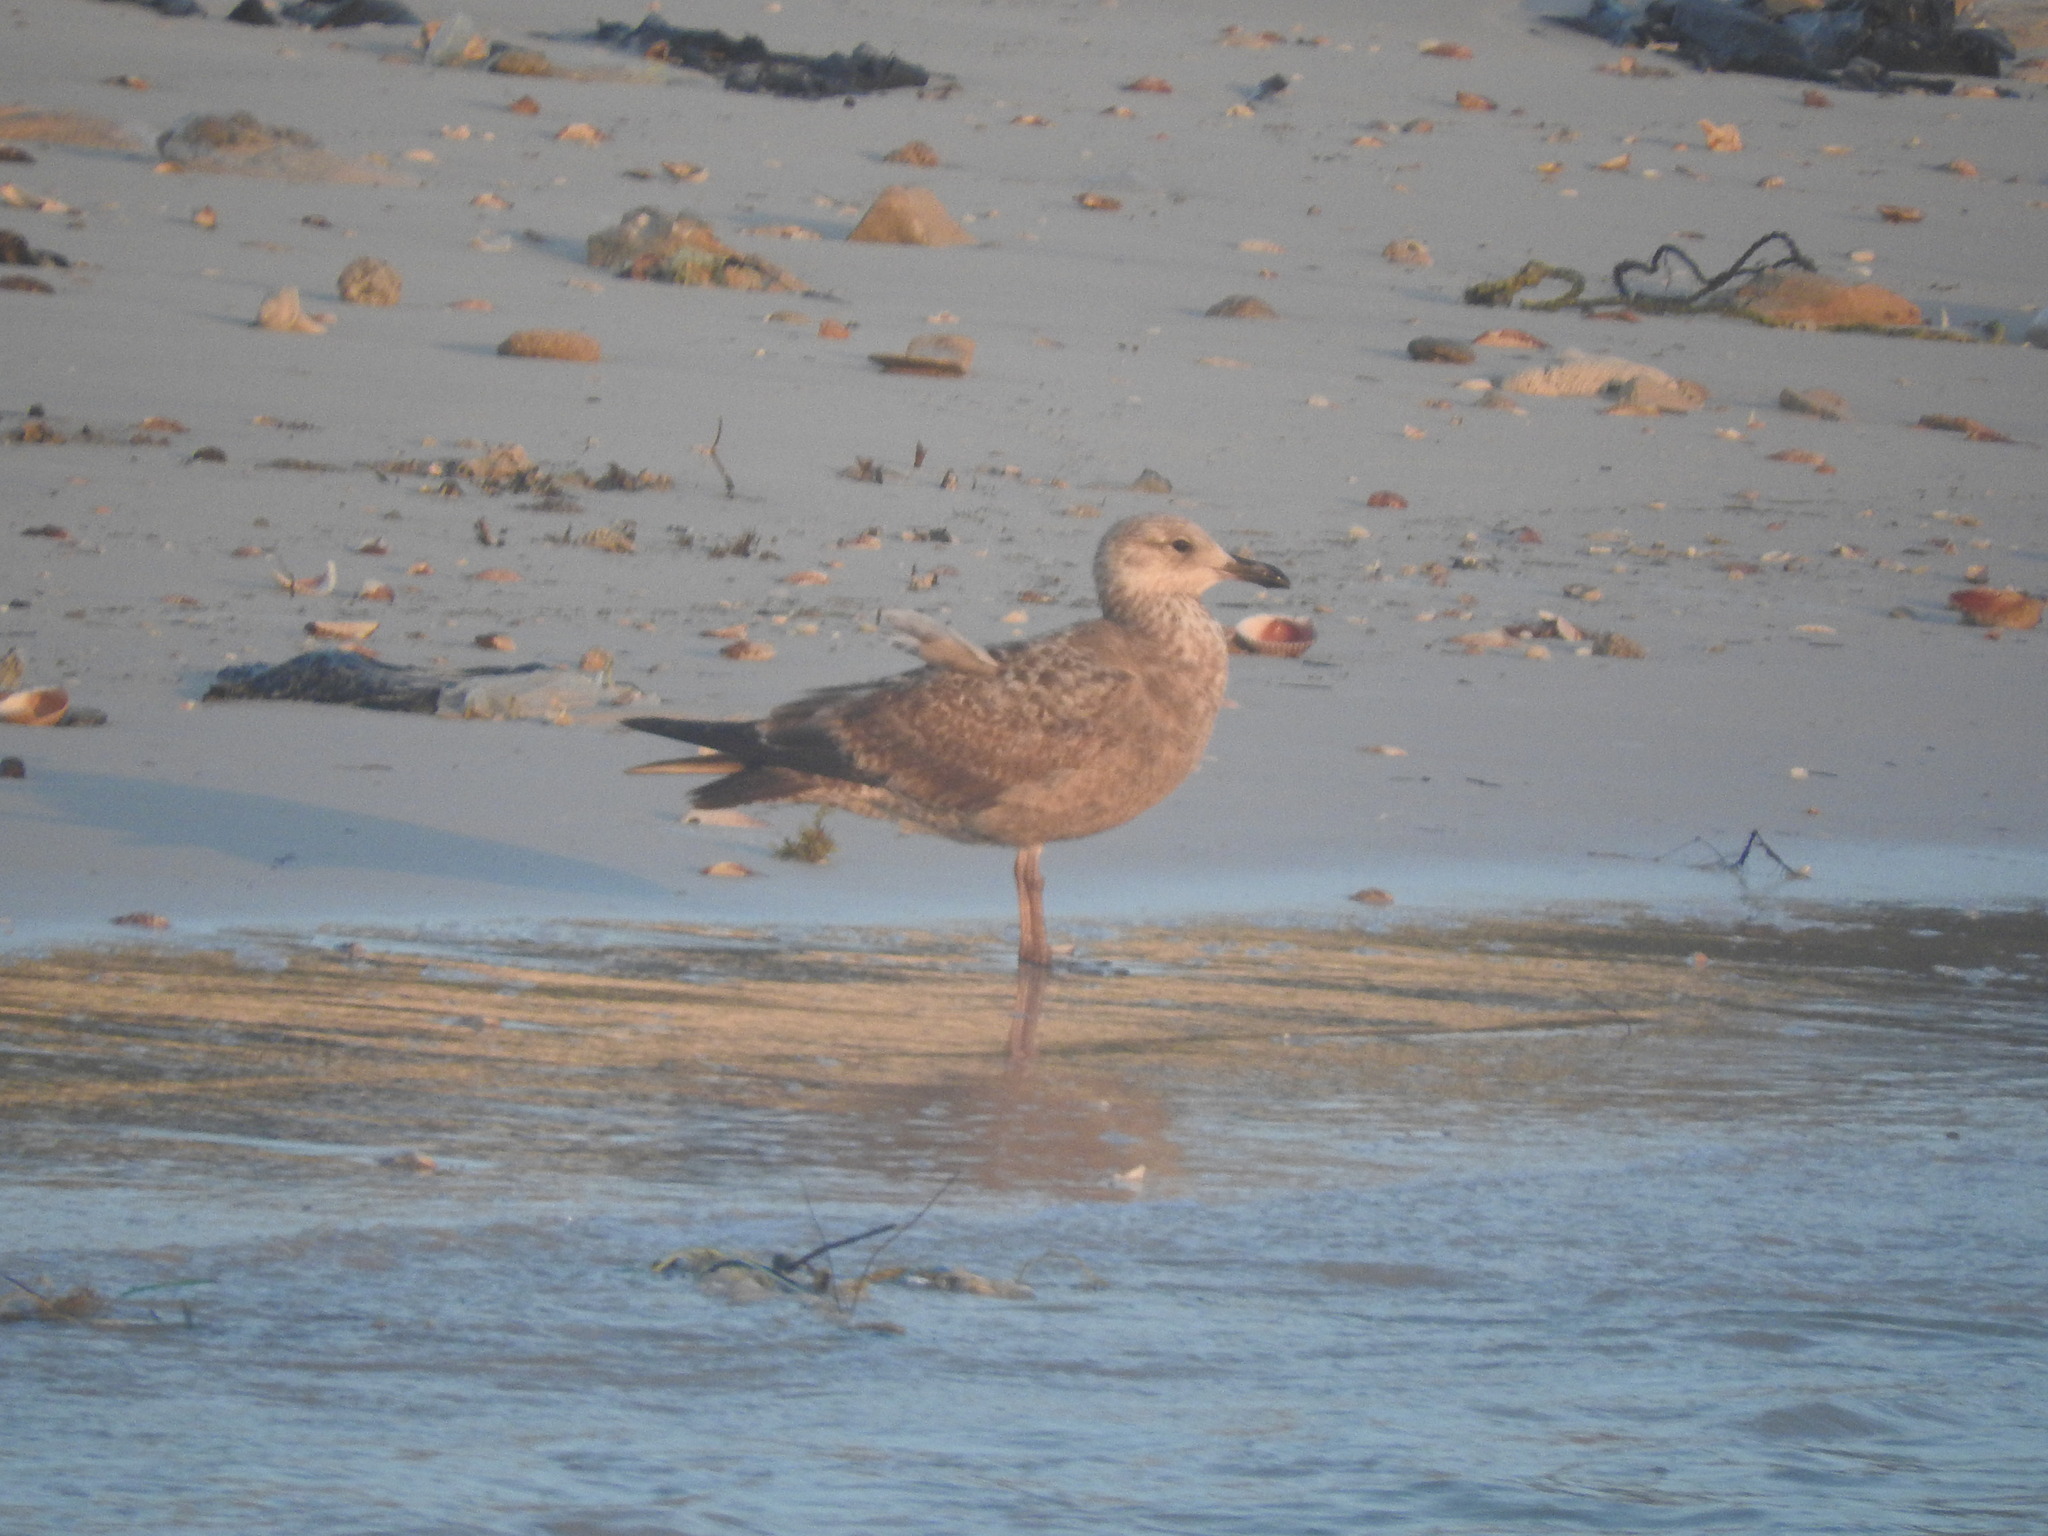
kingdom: Animalia
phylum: Chordata
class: Aves
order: Charadriiformes
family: Laridae
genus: Larus
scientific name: Larus argentatus
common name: Herring gull
